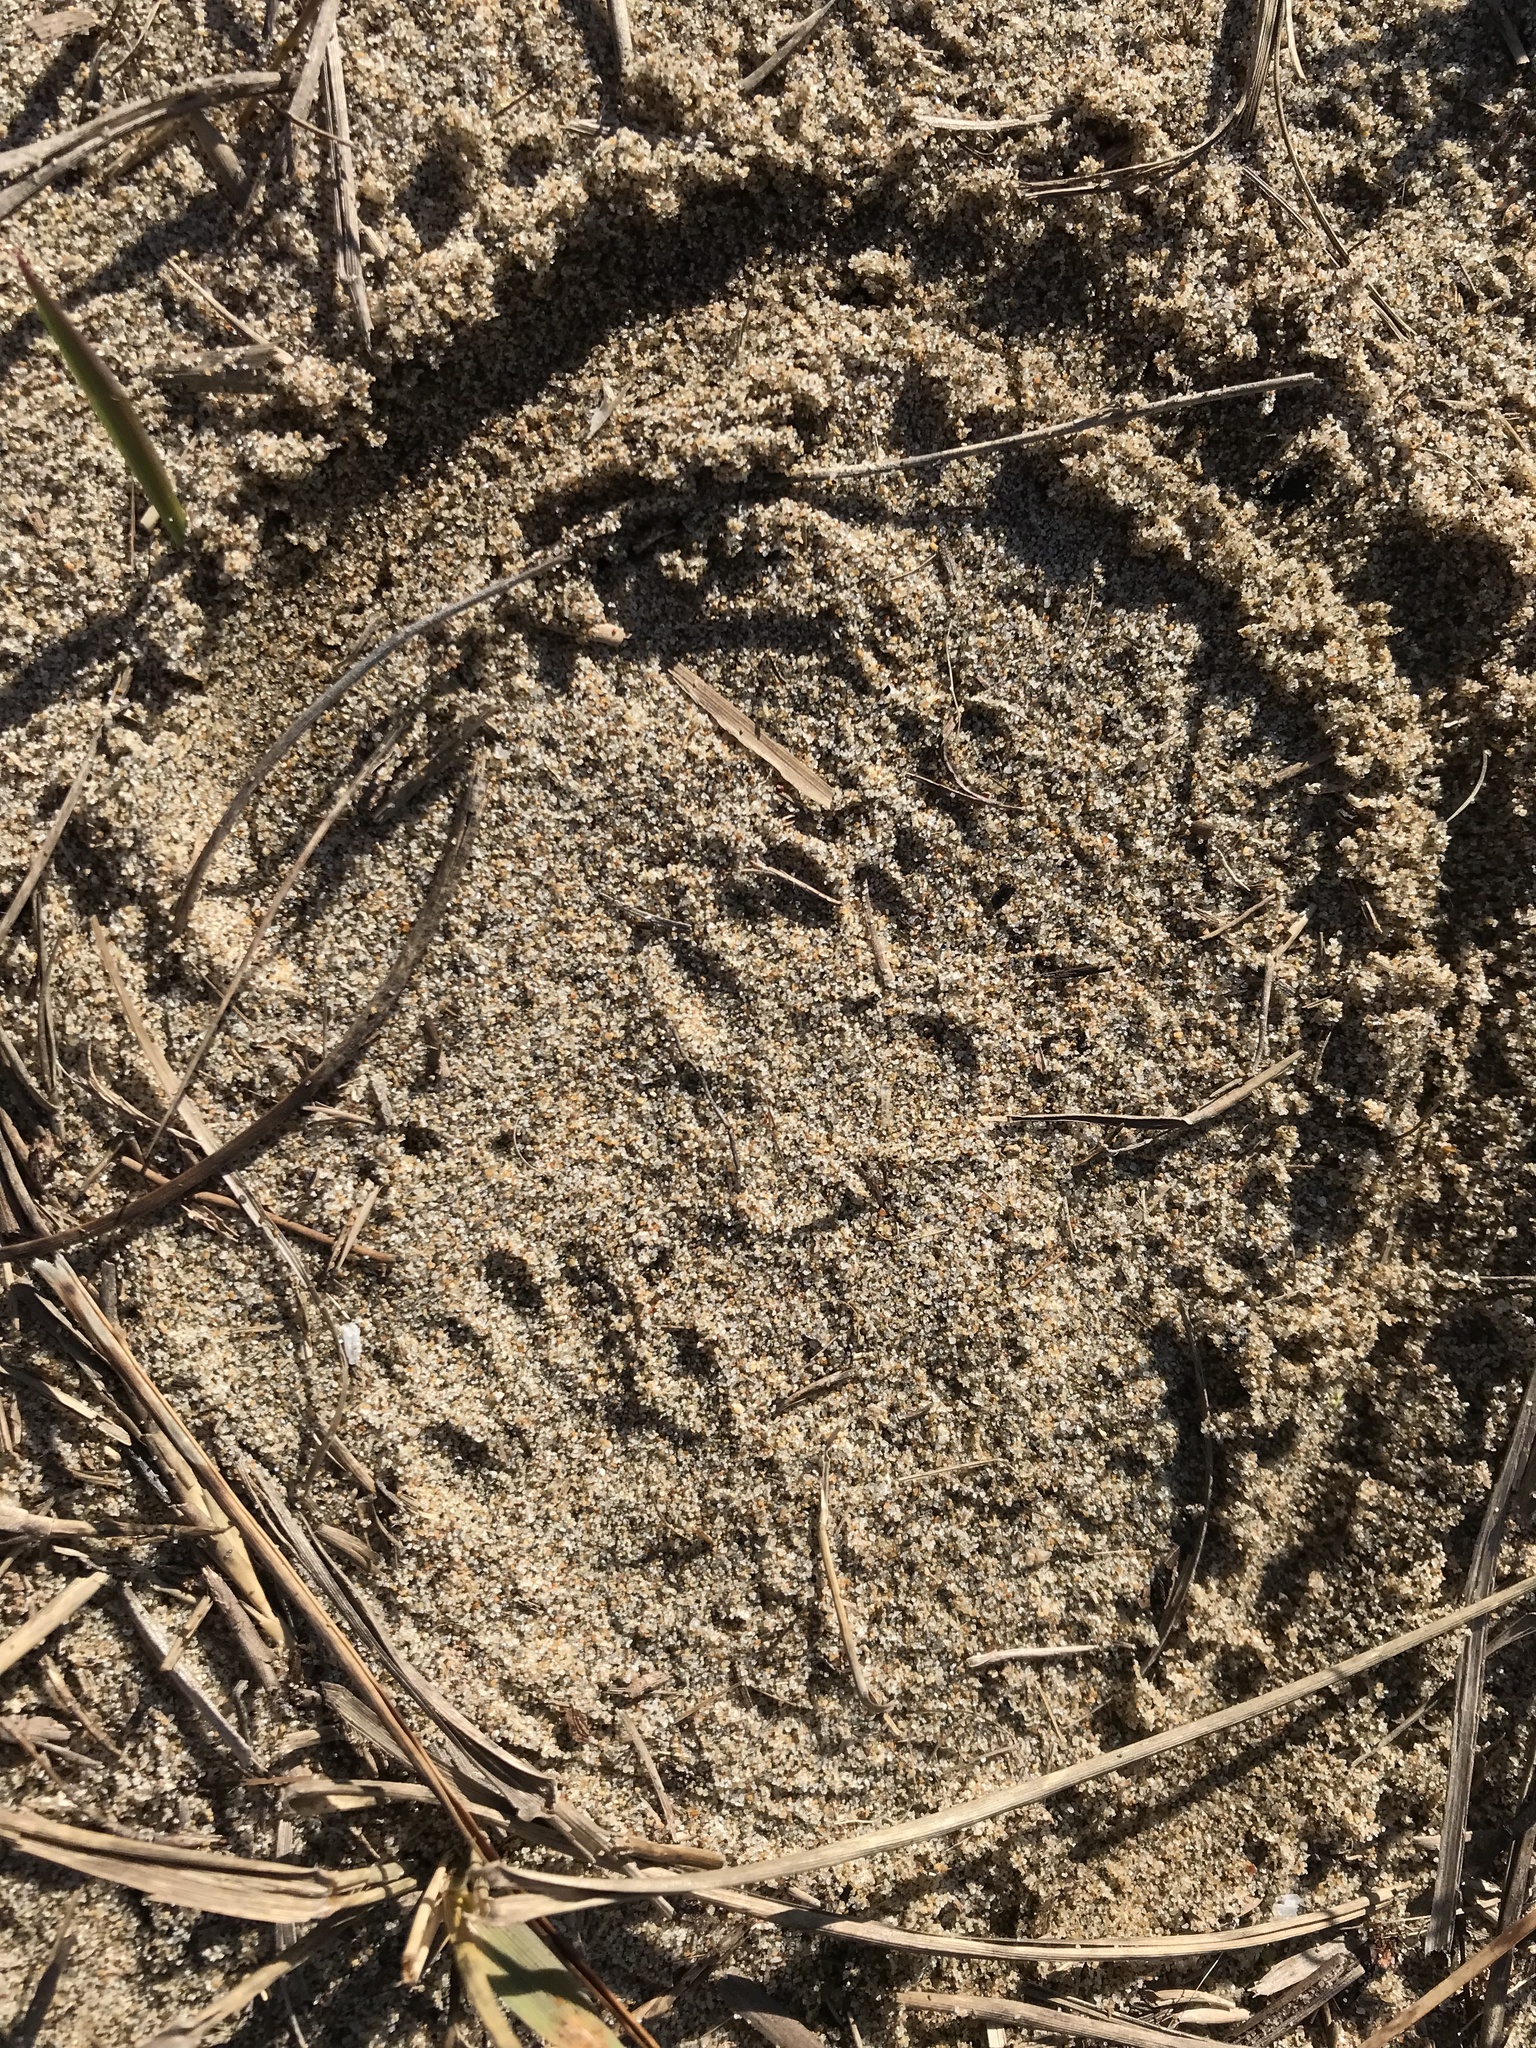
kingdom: Animalia
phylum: Chordata
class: Mammalia
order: Carnivora
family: Mephitidae
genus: Mephitis
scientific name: Mephitis mephitis
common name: Striped skunk
